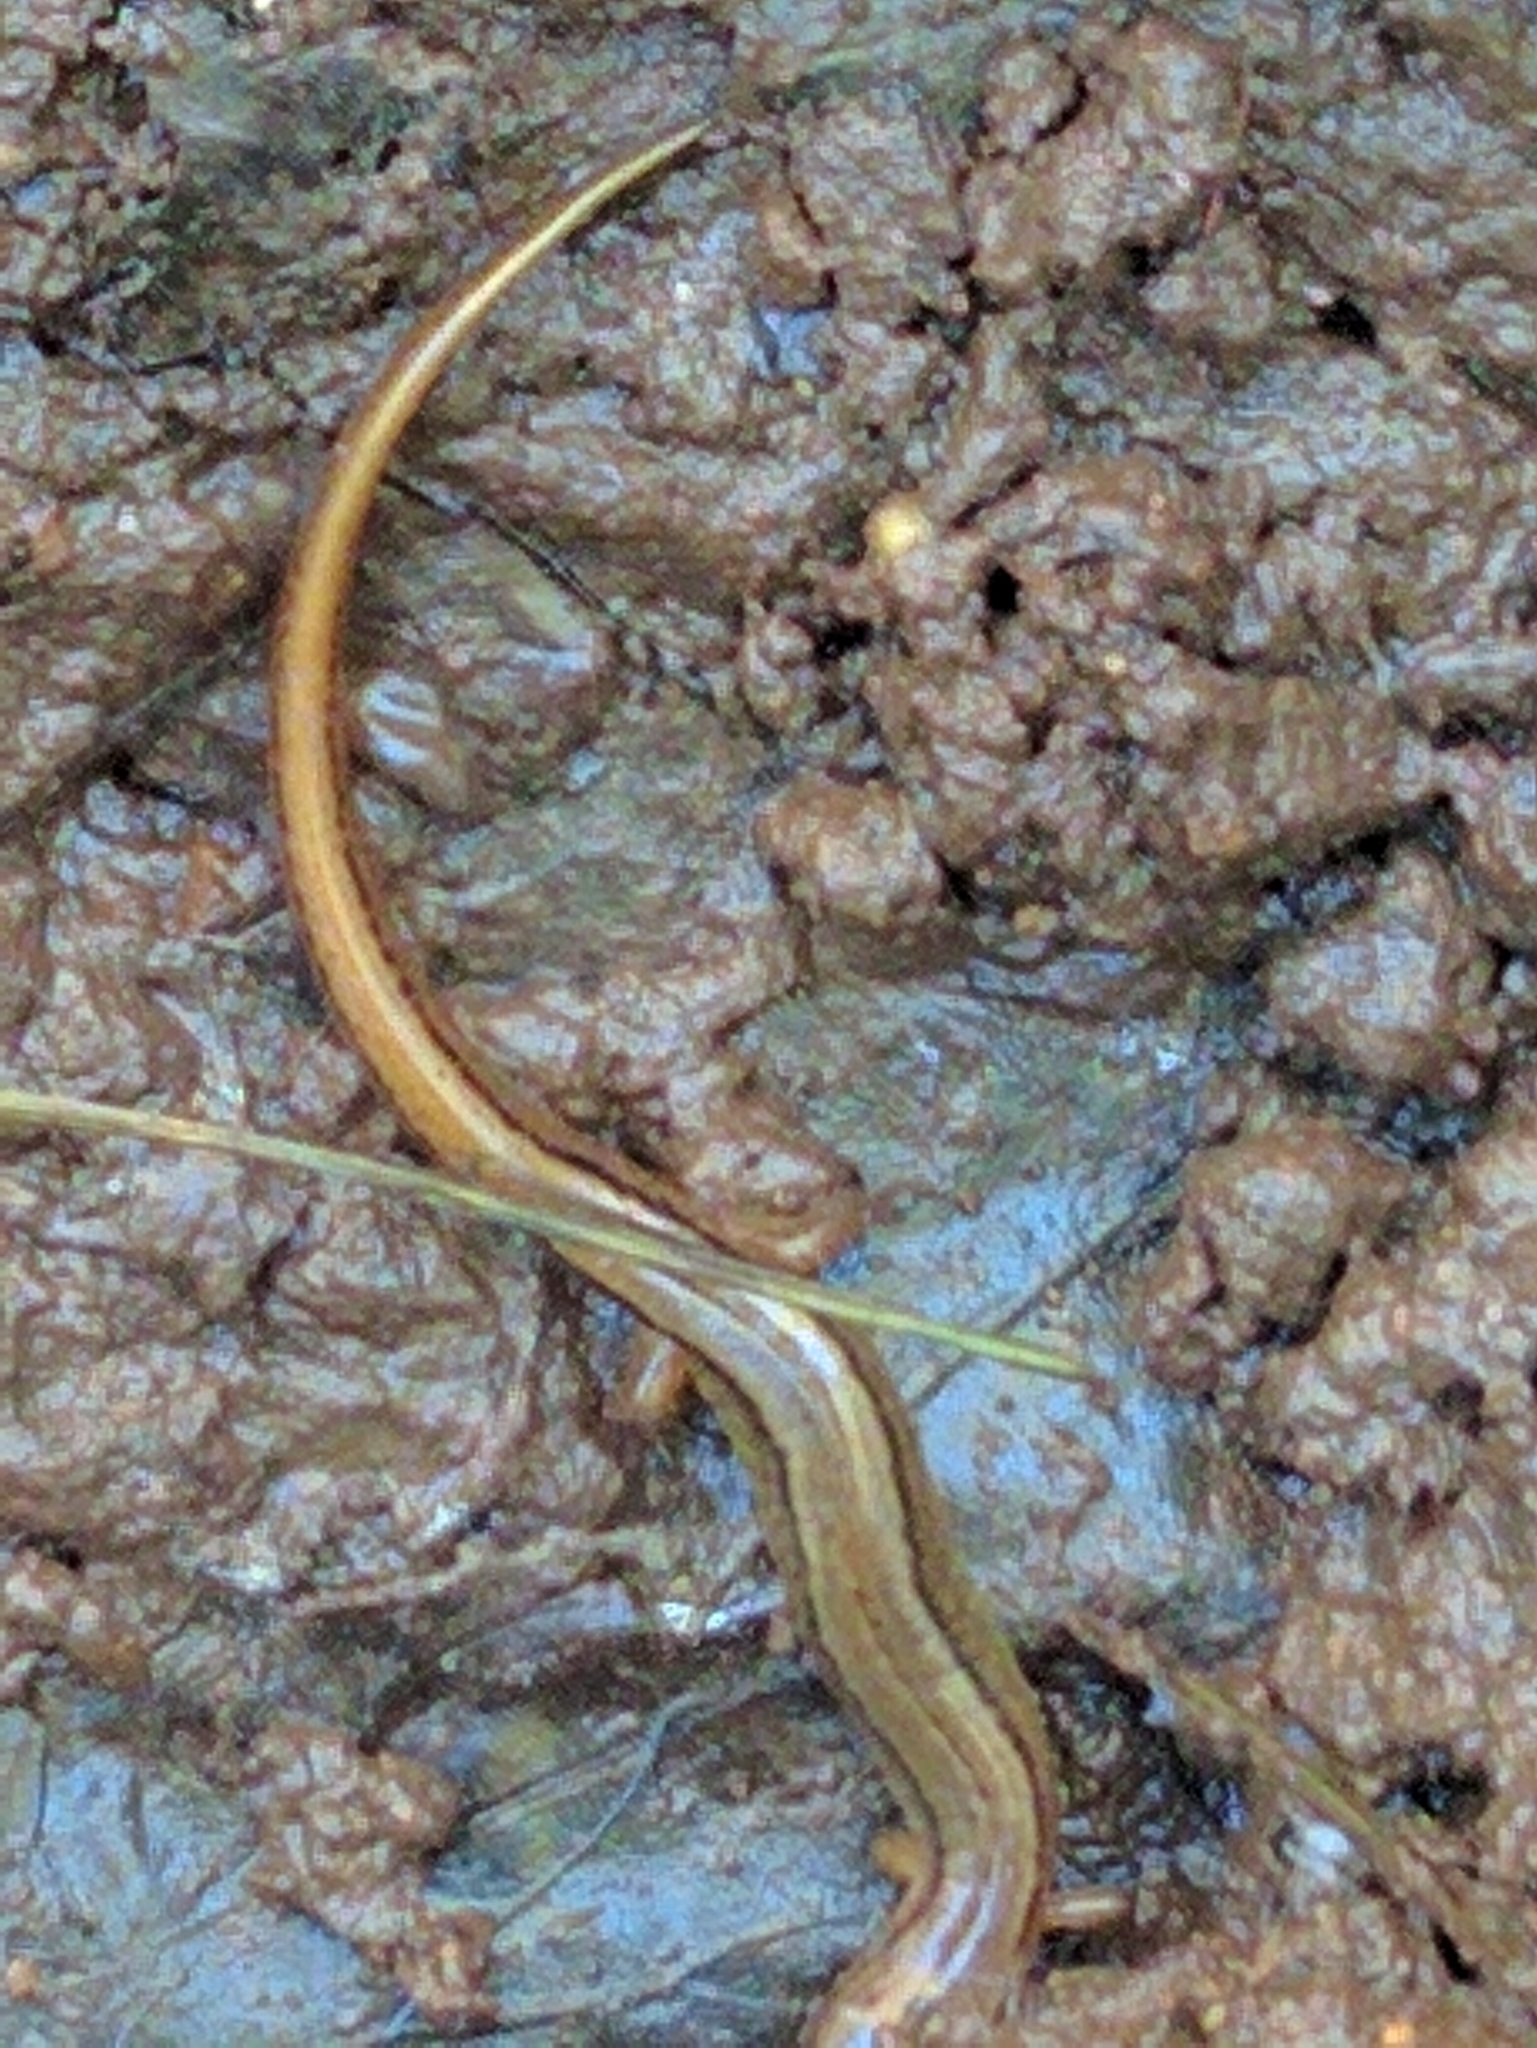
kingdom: Animalia
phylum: Chordata
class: Amphibia
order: Caudata
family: Plethodontidae
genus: Eurycea
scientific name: Eurycea bislineata
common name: Northern two-lined salamander
